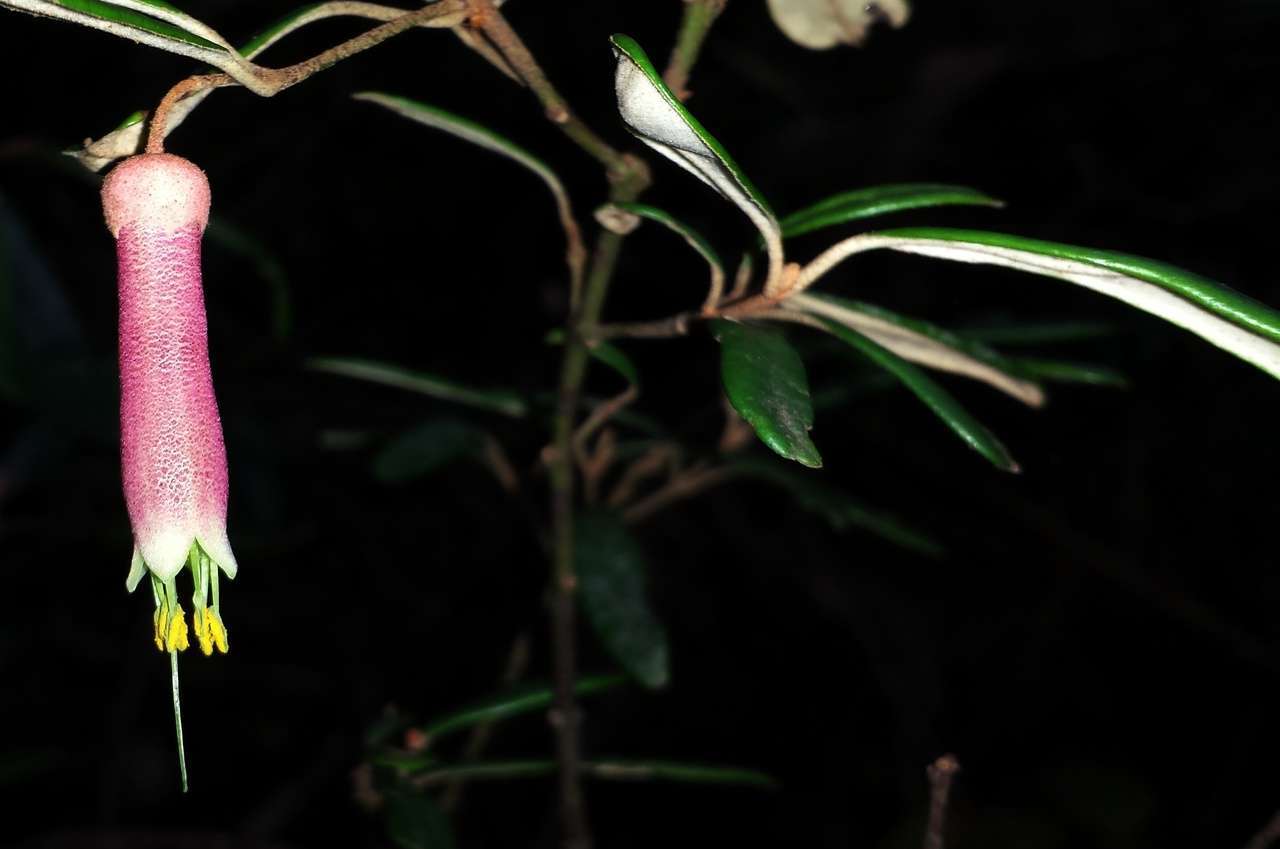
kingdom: Plantae
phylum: Tracheophyta
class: Magnoliopsida
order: Sapindales
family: Rutaceae
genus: Correa
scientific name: Correa lawrenciana
